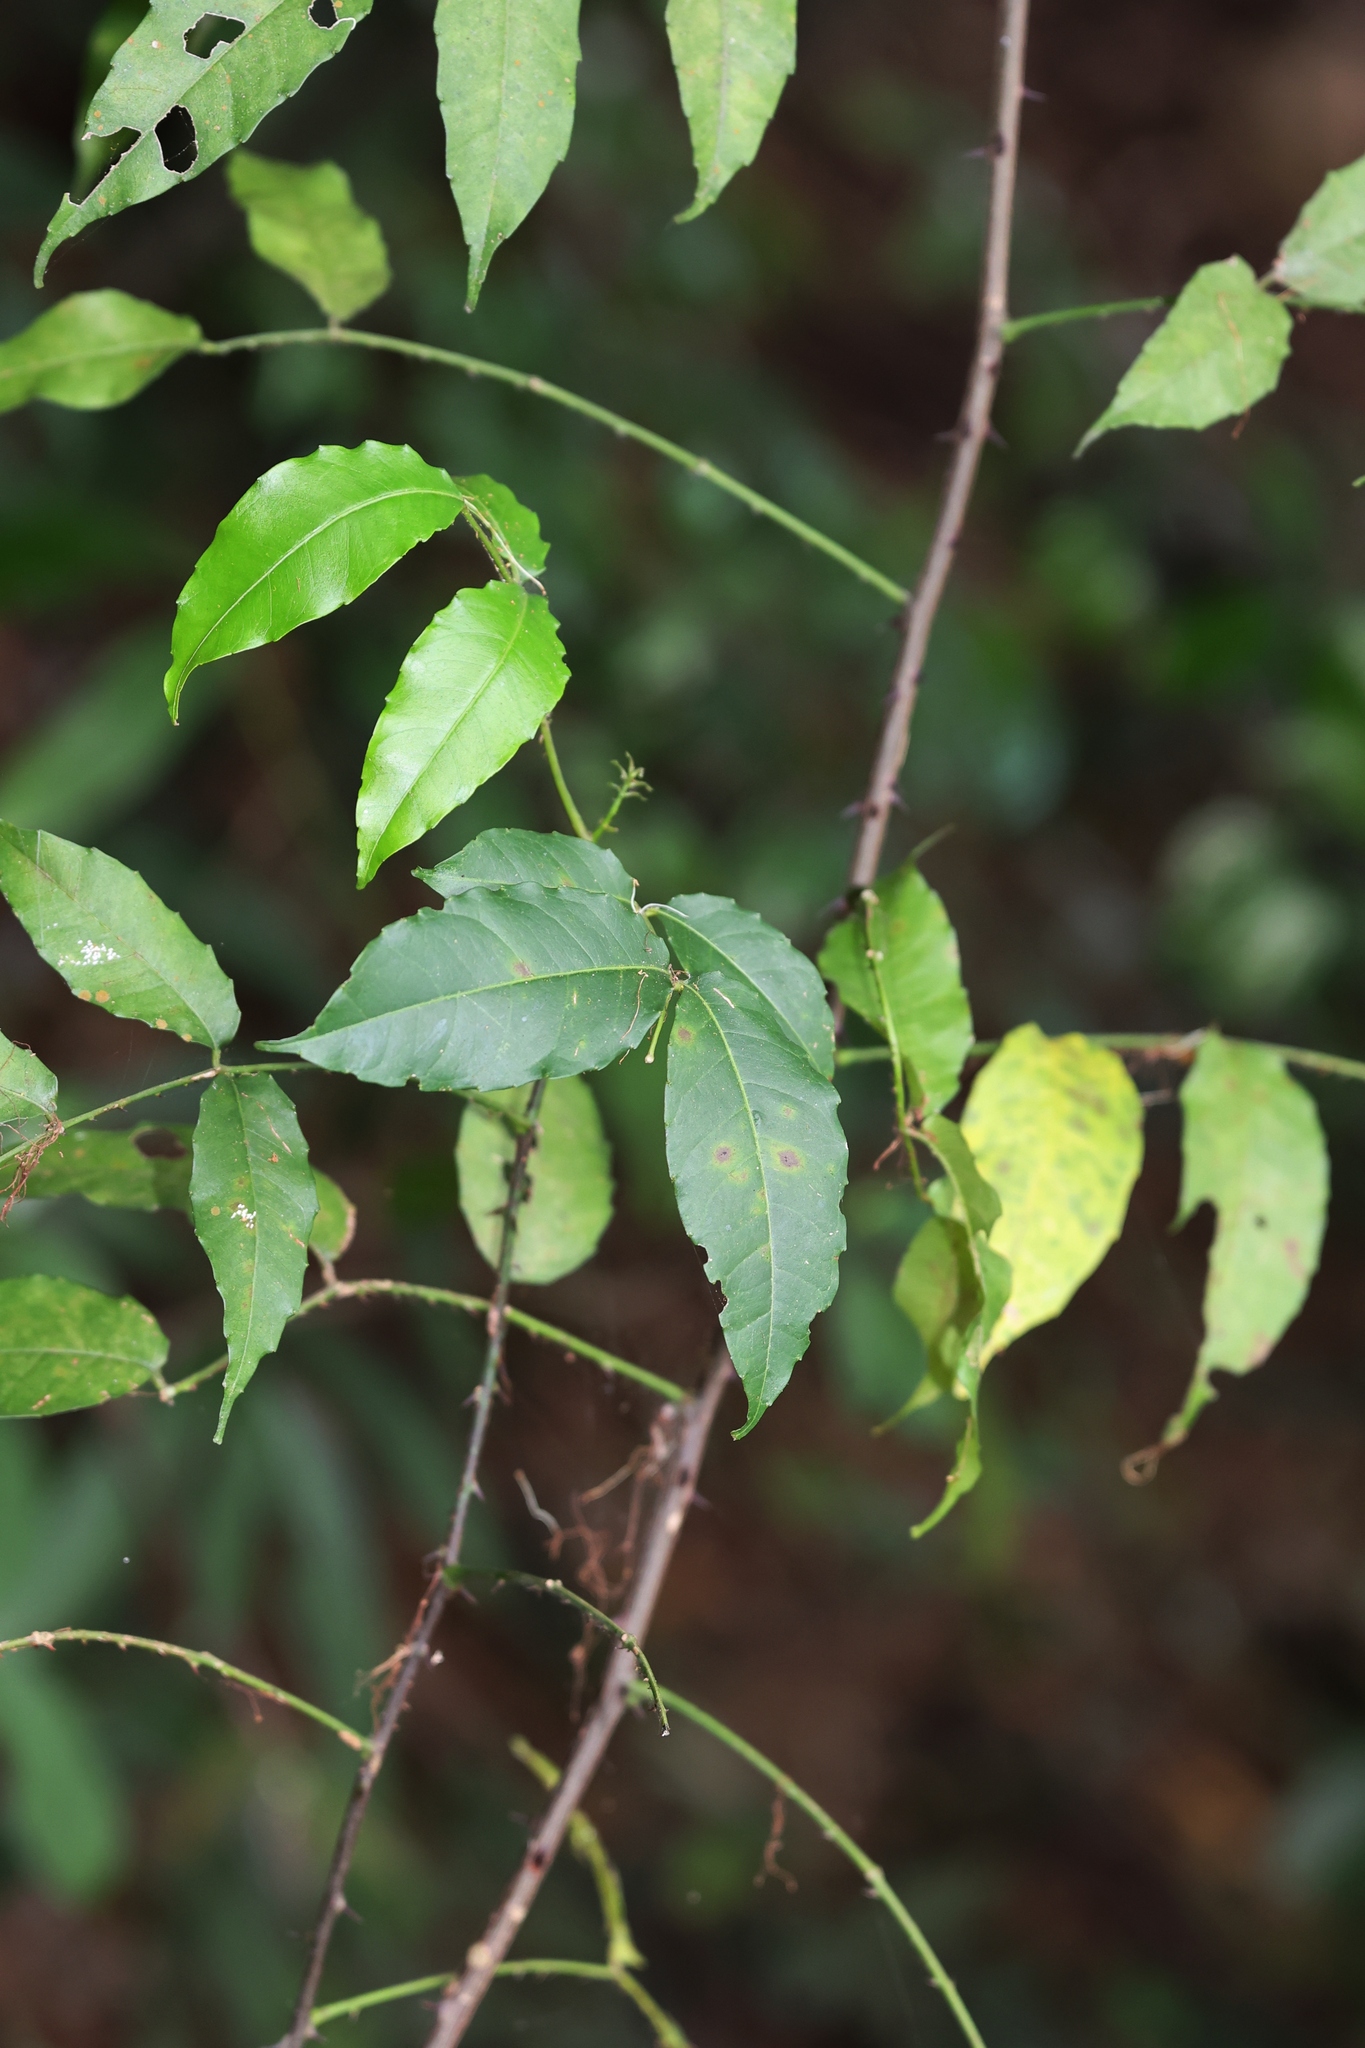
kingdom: Plantae
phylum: Tracheophyta
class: Magnoliopsida
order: Sapindales
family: Rutaceae
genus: Zanthoxylum
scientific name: Zanthoxylum nitidum
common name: Shiny-leaf prickly-ash
